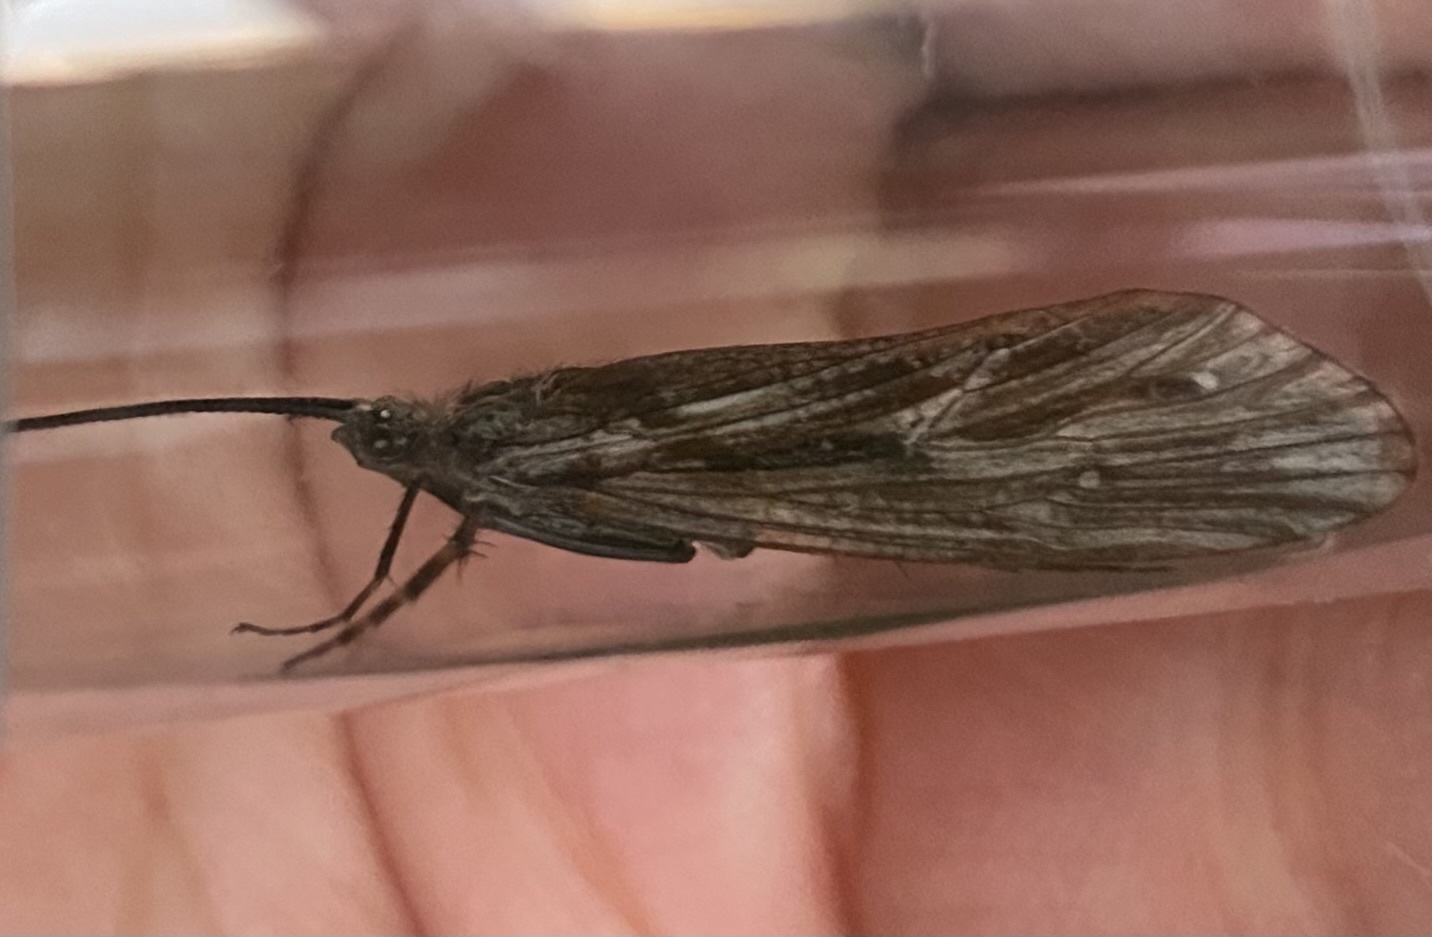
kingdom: Animalia
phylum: Arthropoda
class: Insecta
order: Trichoptera
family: Phryganeidae
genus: Phryganea
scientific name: Phryganea bipunctata
